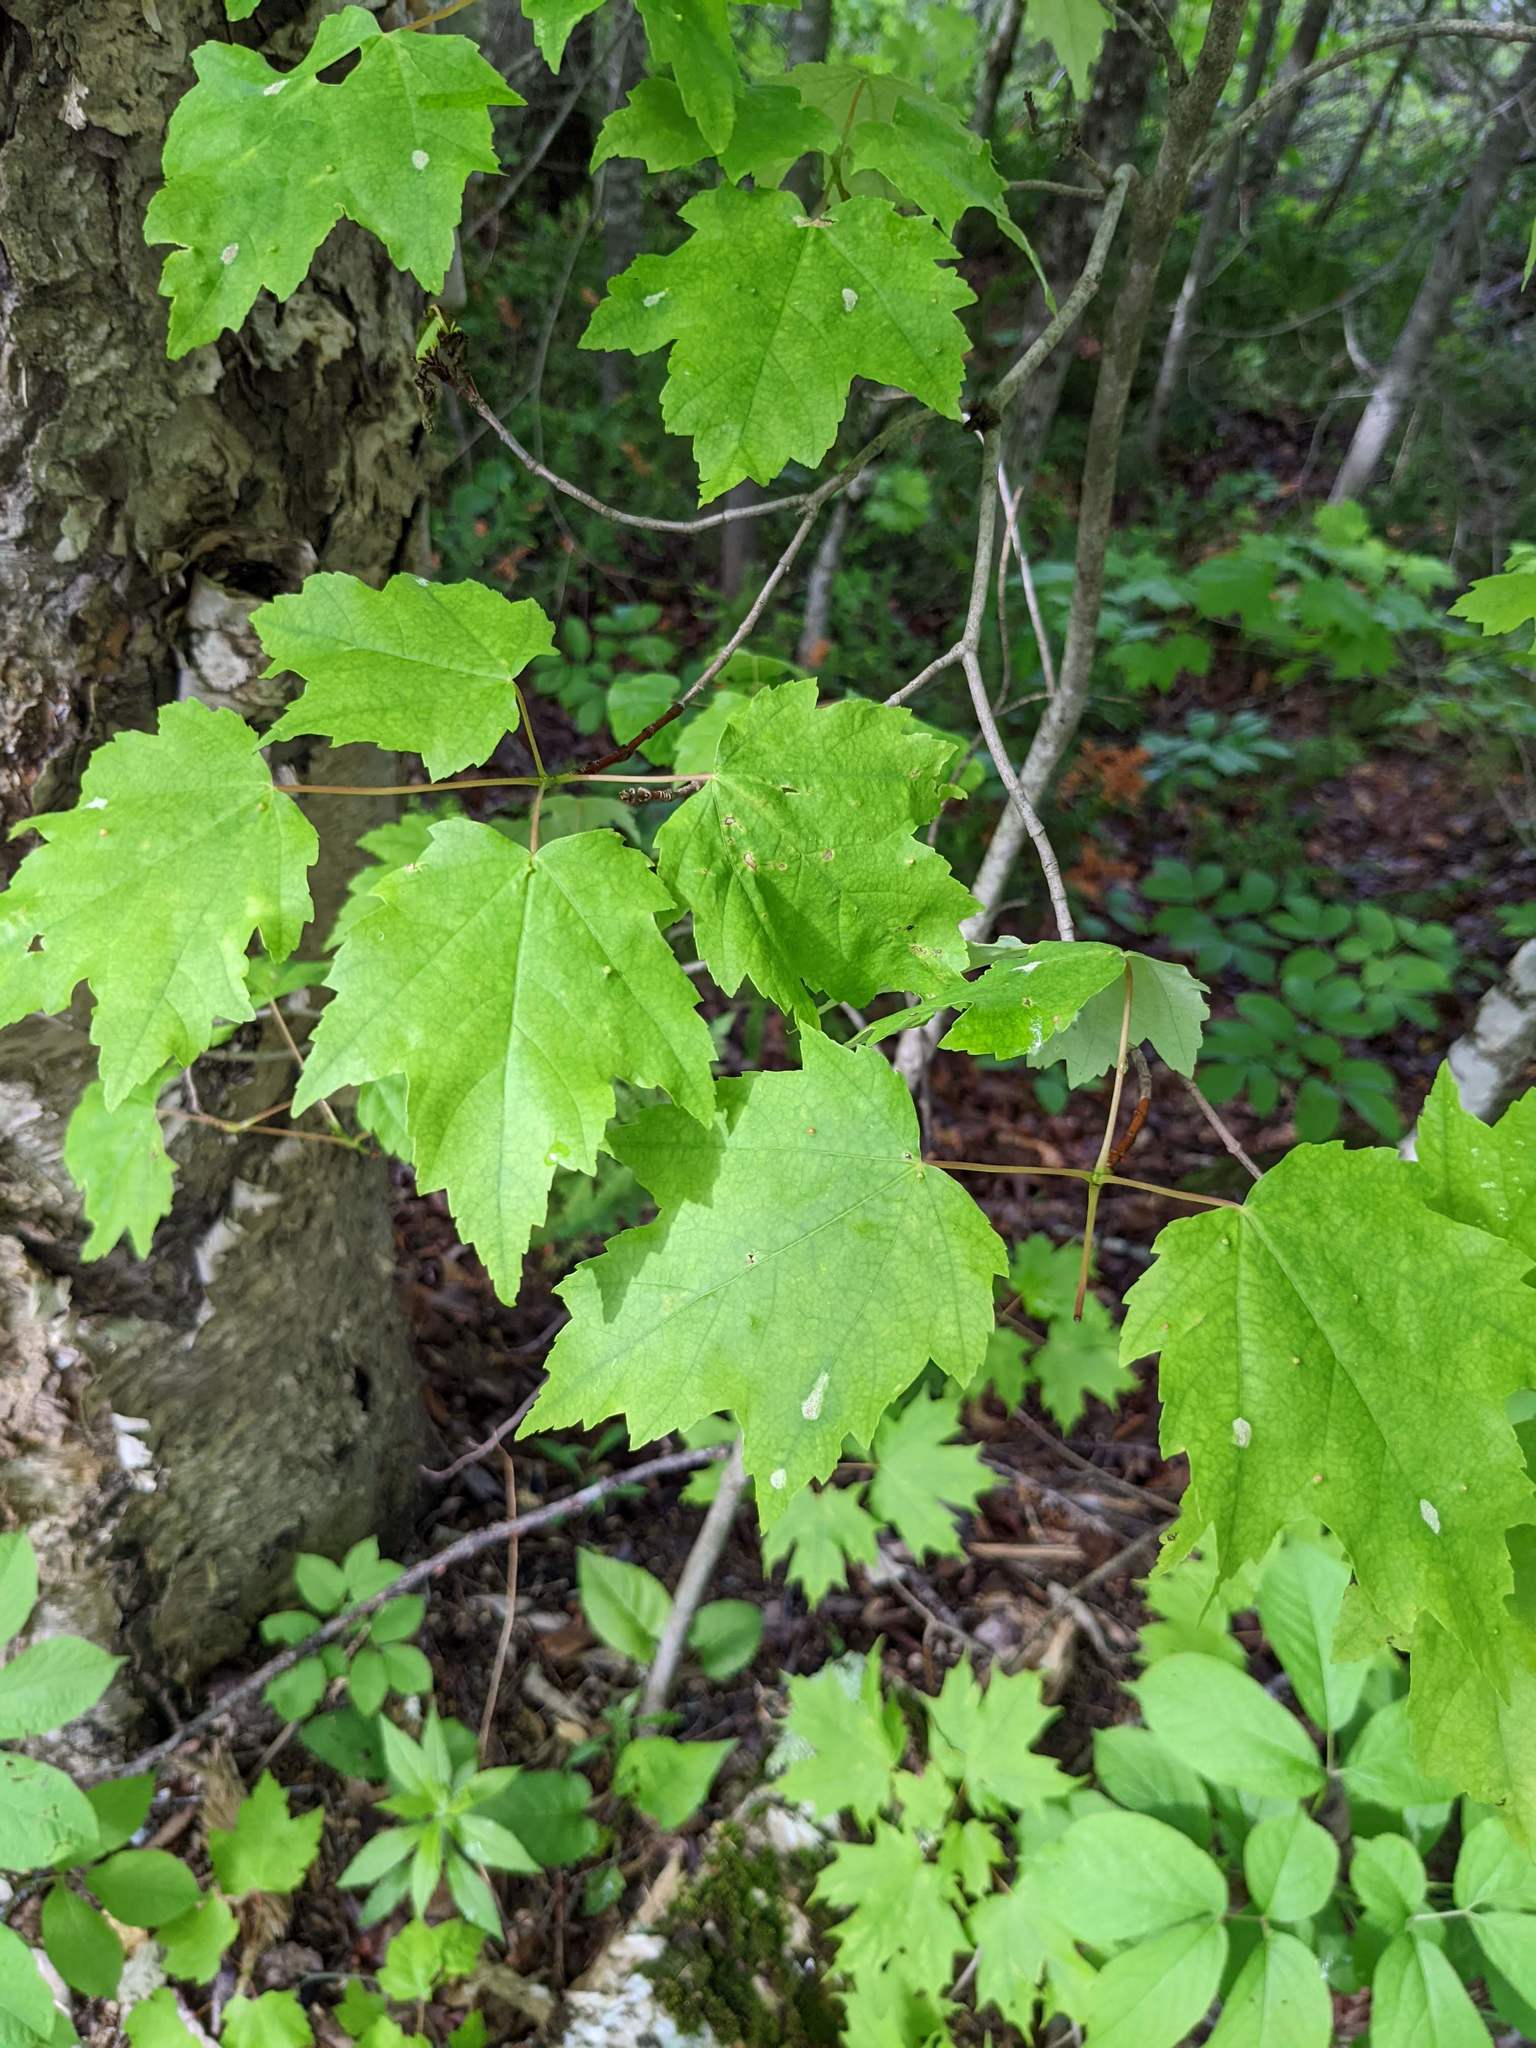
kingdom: Plantae
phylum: Tracheophyta
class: Magnoliopsida
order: Sapindales
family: Sapindaceae
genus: Acer
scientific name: Acer rubrum
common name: Red maple
